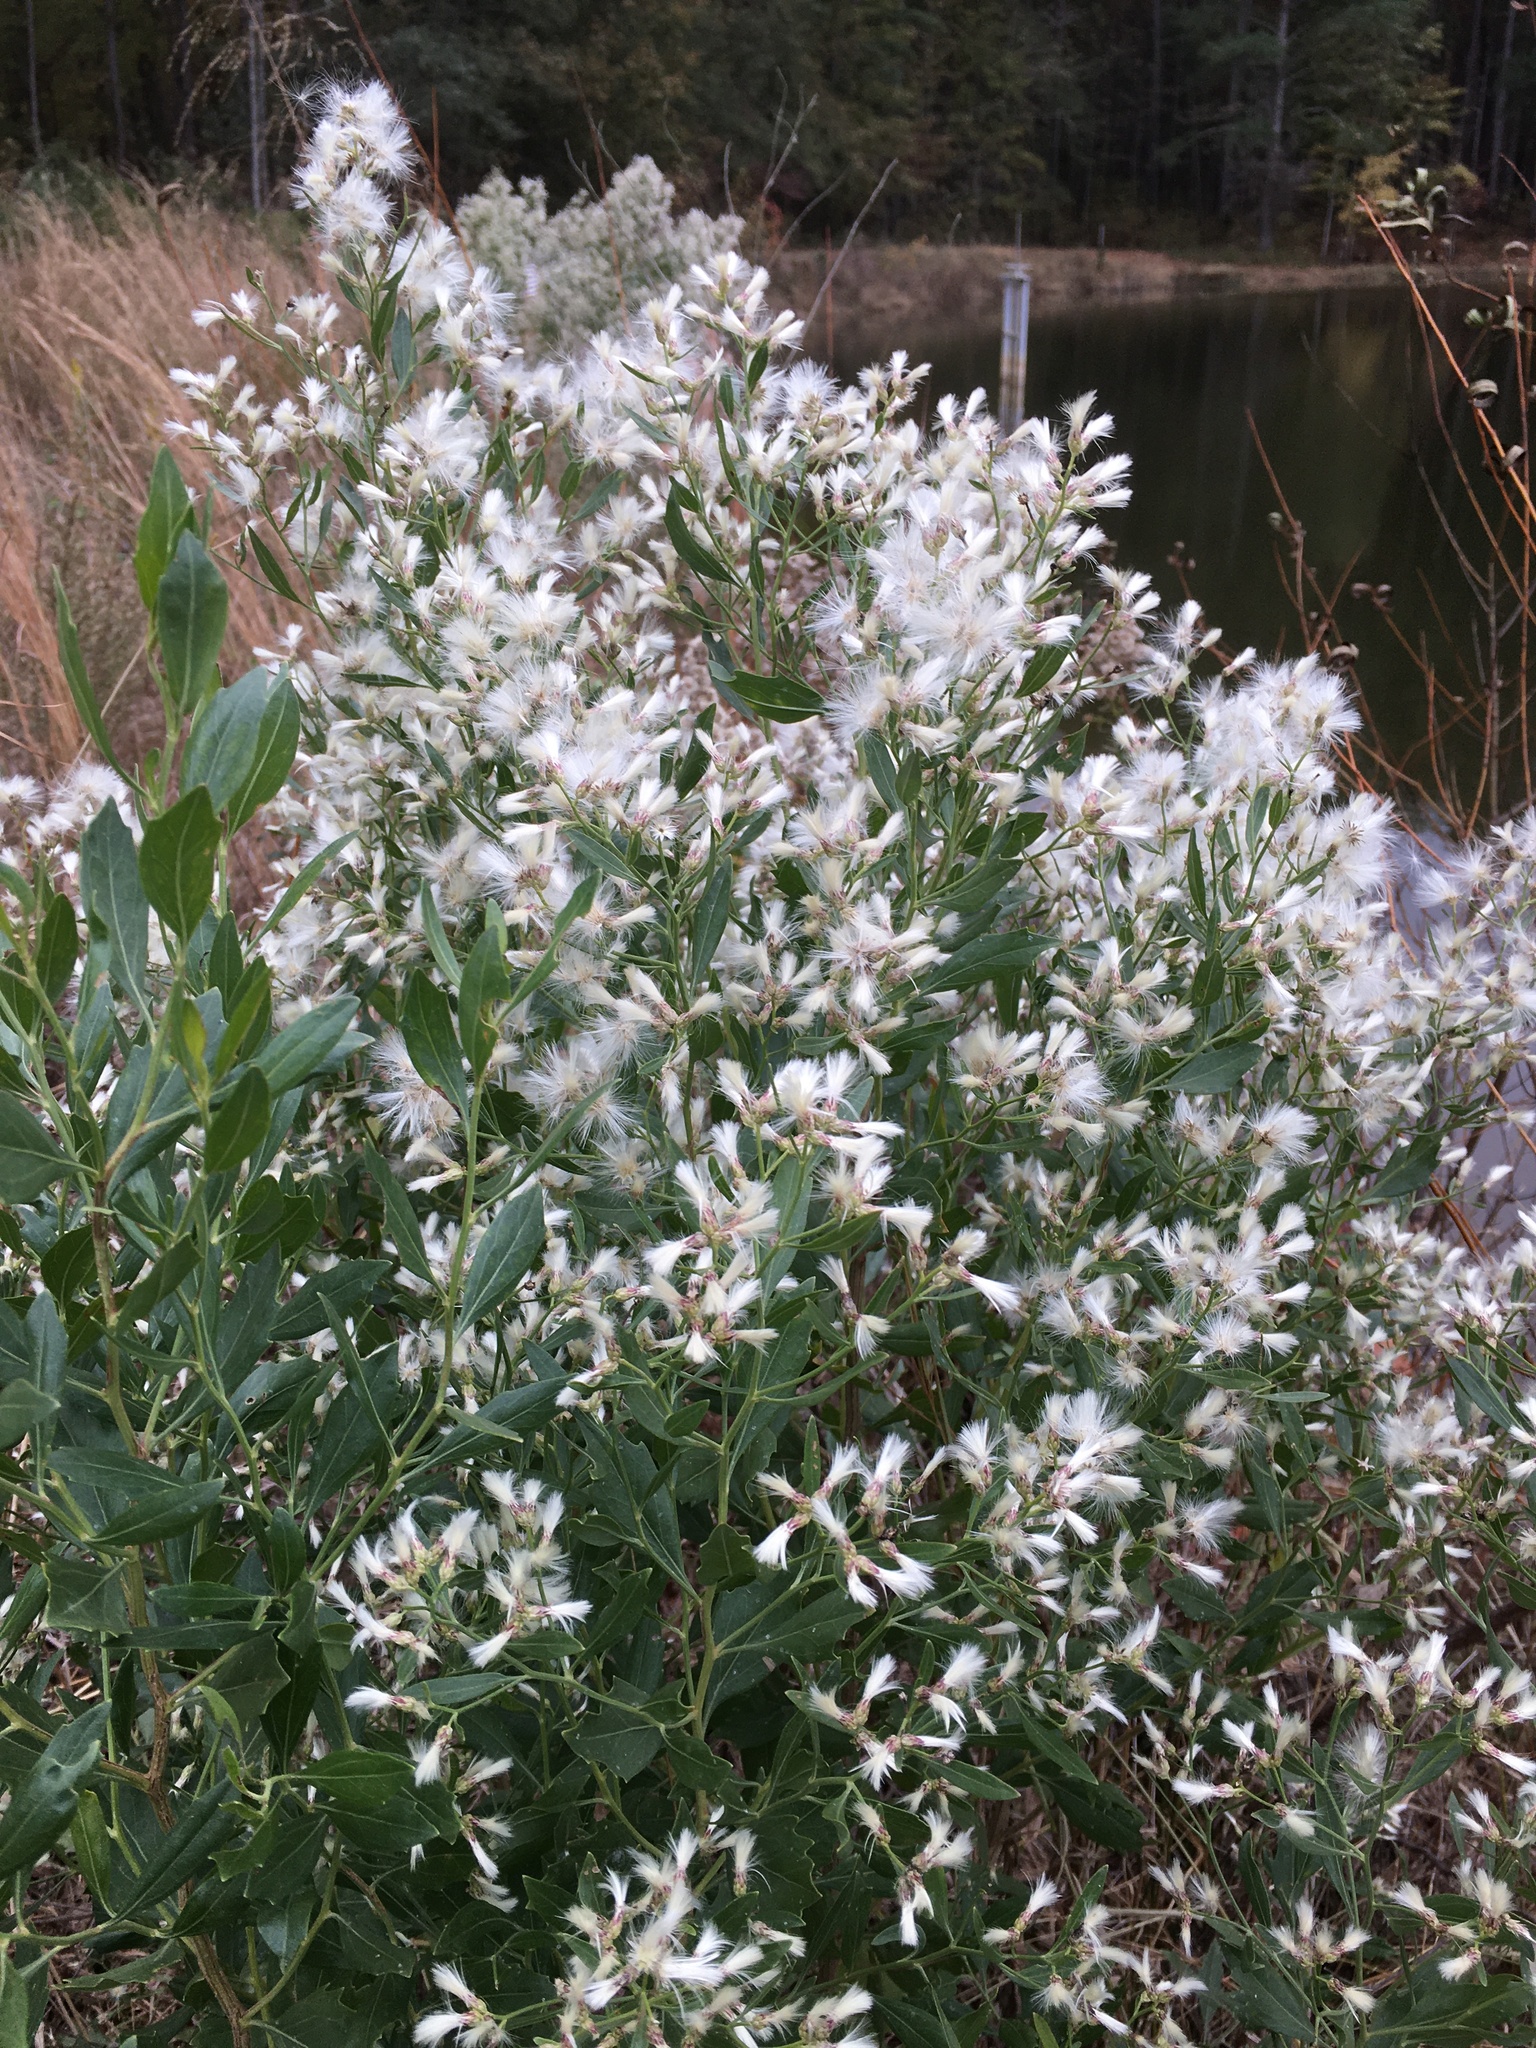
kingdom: Plantae
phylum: Tracheophyta
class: Magnoliopsida
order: Asterales
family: Asteraceae
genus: Baccharis
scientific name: Baccharis halimifolia
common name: Eastern baccharis
